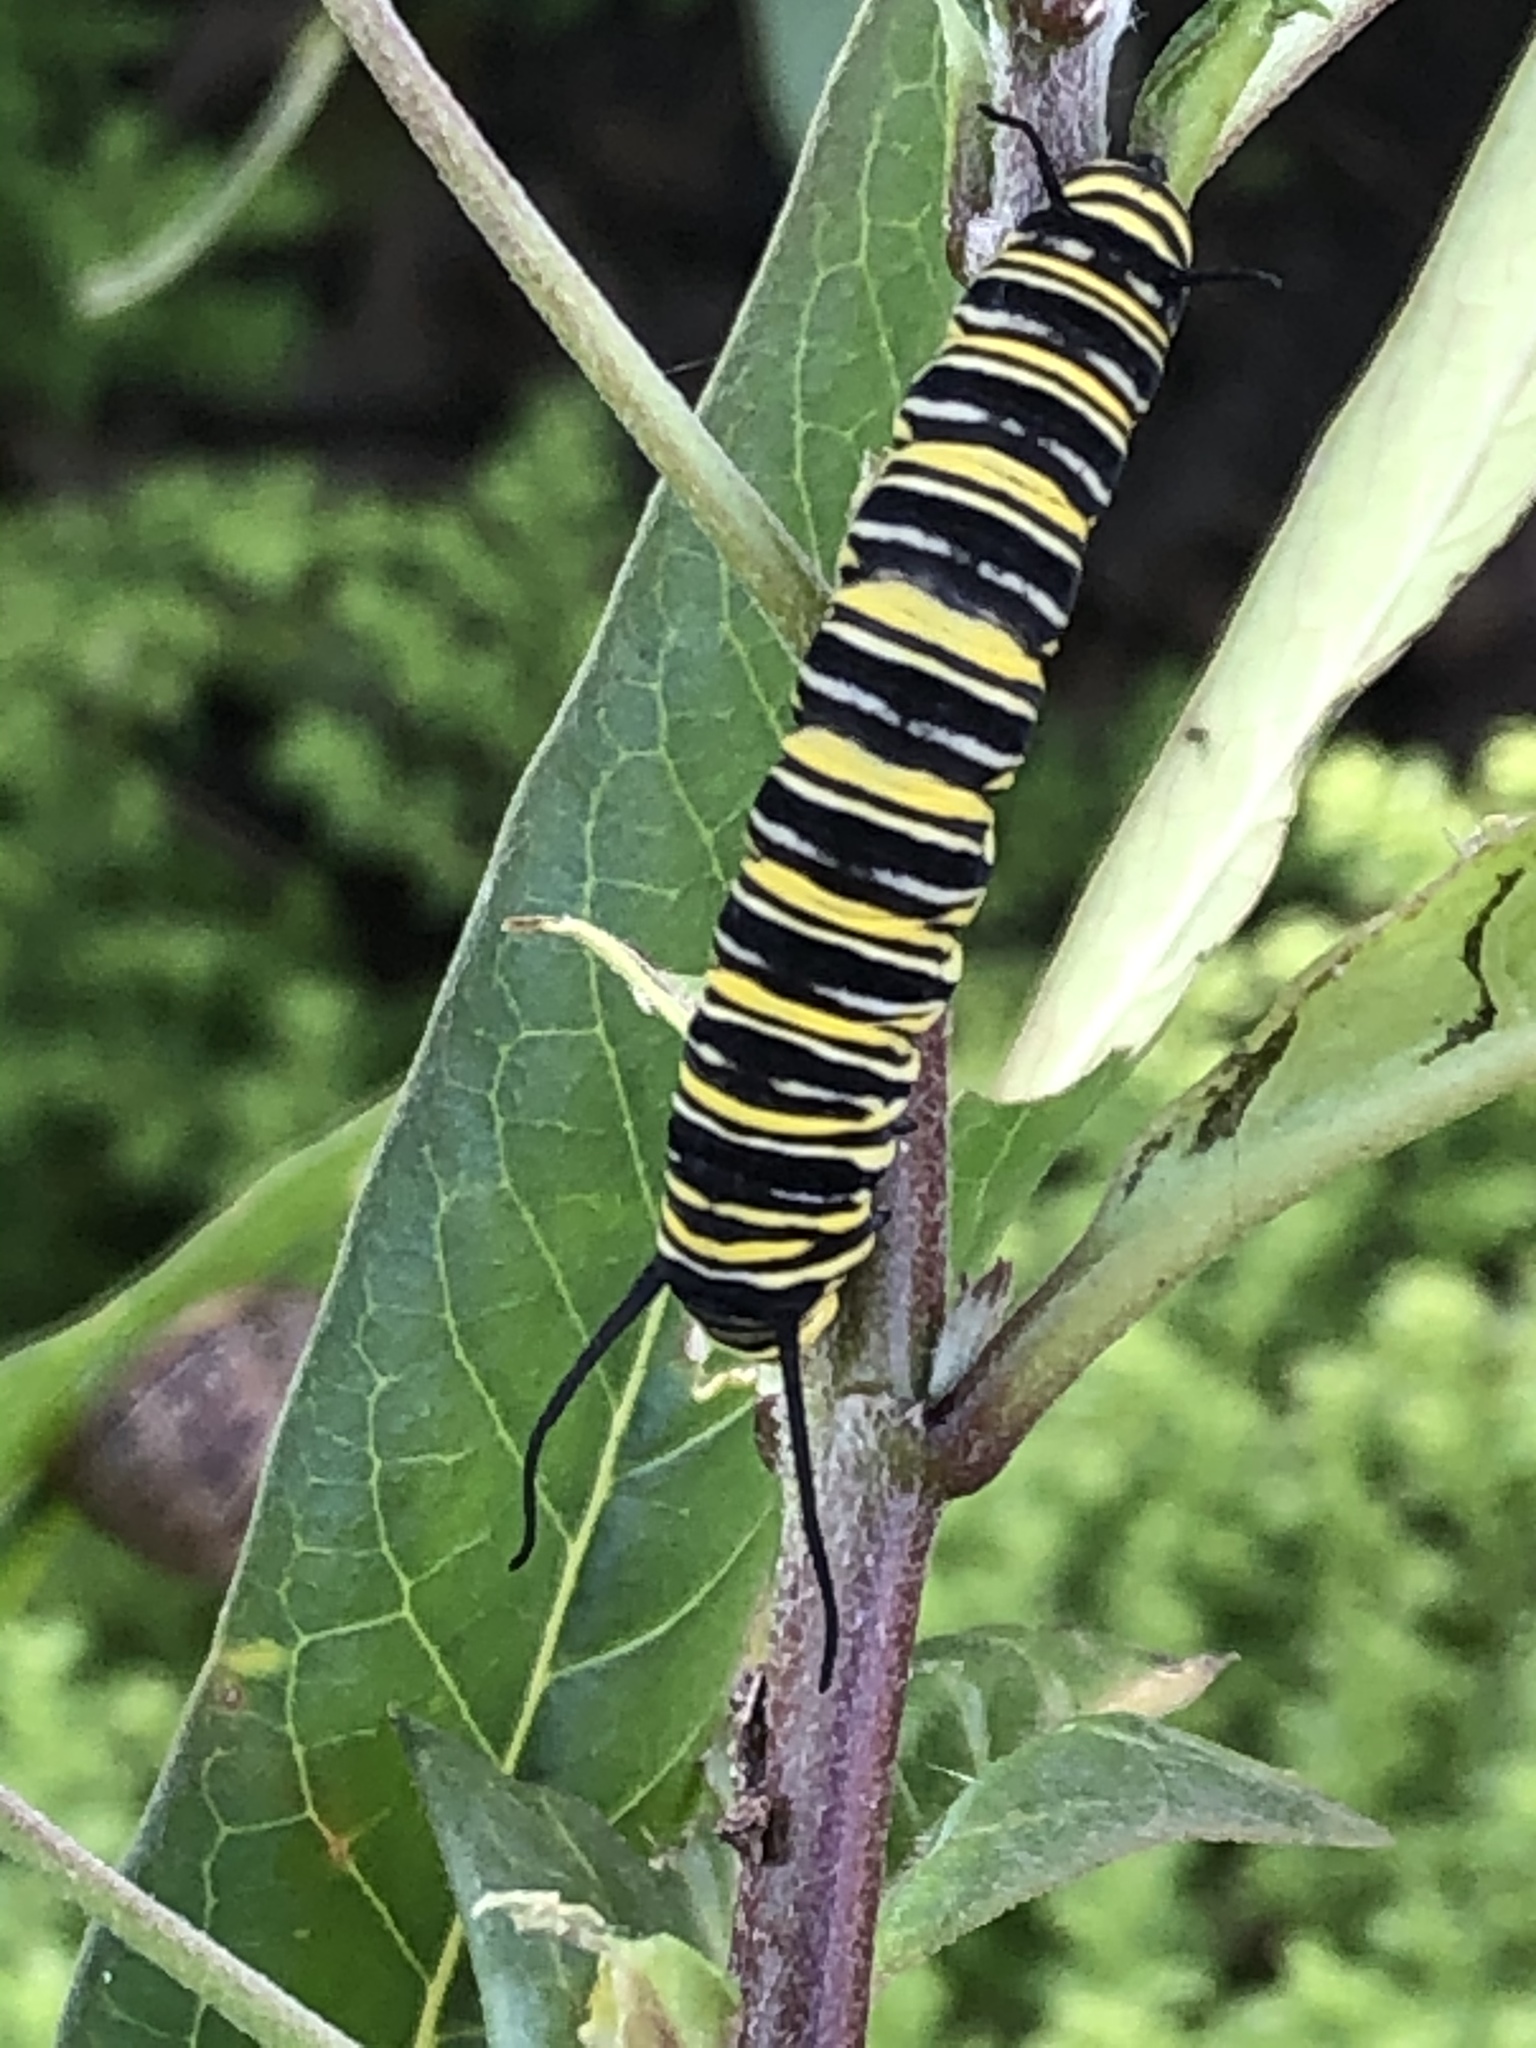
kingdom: Animalia
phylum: Arthropoda
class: Insecta
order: Lepidoptera
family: Nymphalidae
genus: Danaus
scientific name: Danaus plexippus
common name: Monarch
